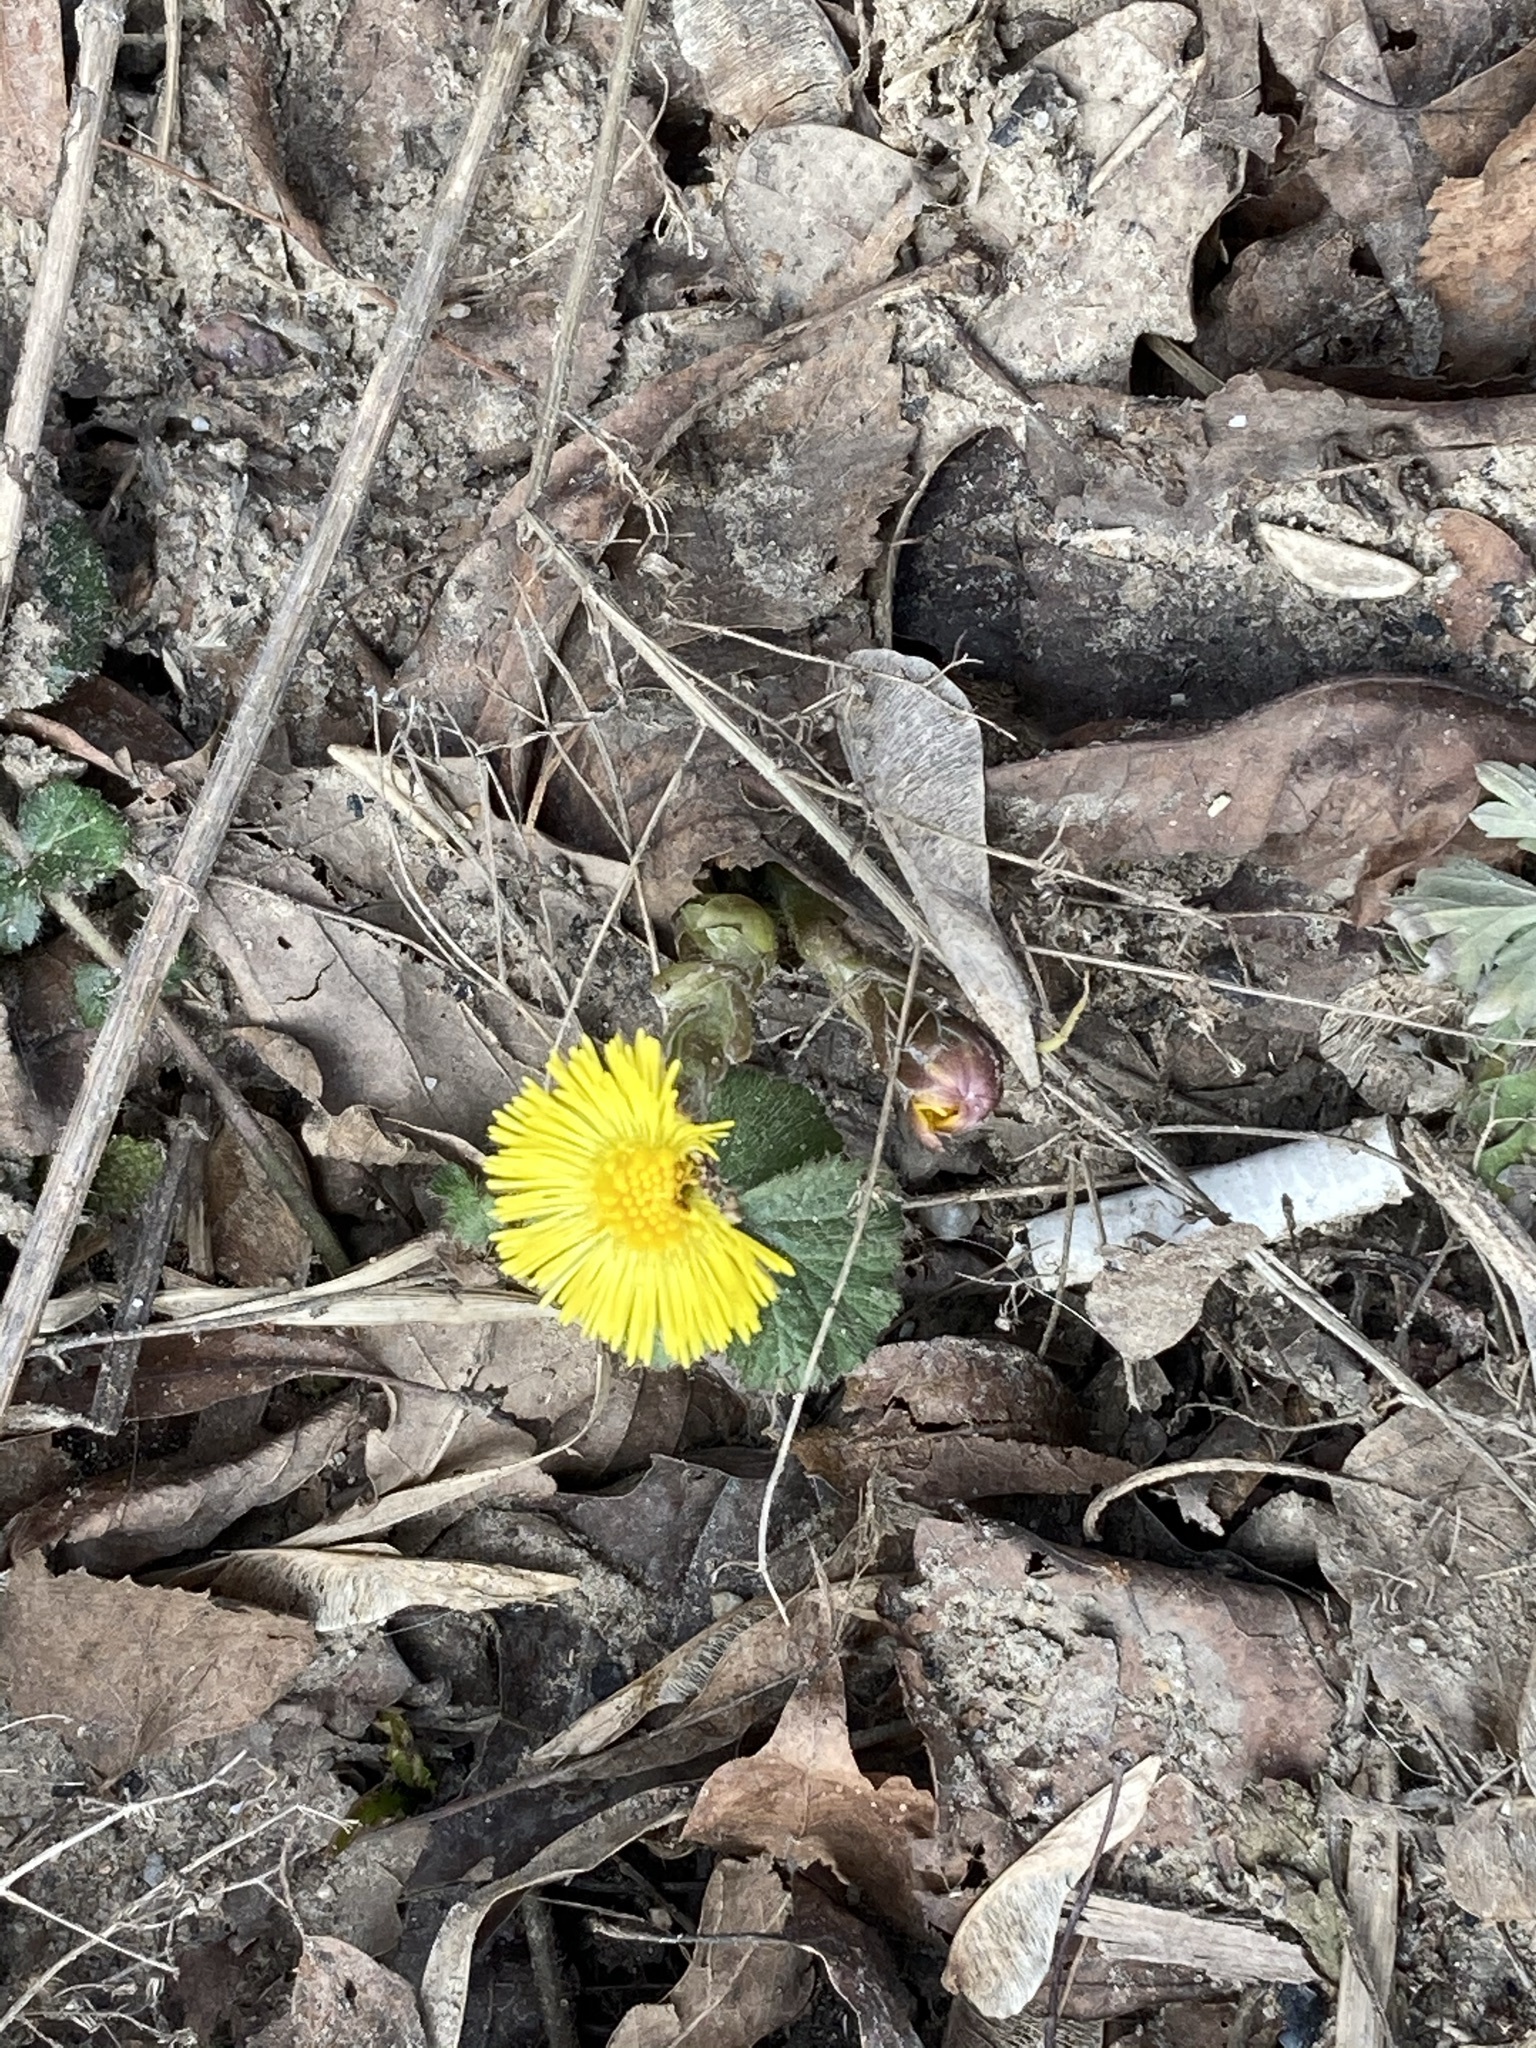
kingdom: Plantae
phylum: Tracheophyta
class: Magnoliopsida
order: Asterales
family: Asteraceae
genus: Tussilago
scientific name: Tussilago farfara
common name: Coltsfoot
